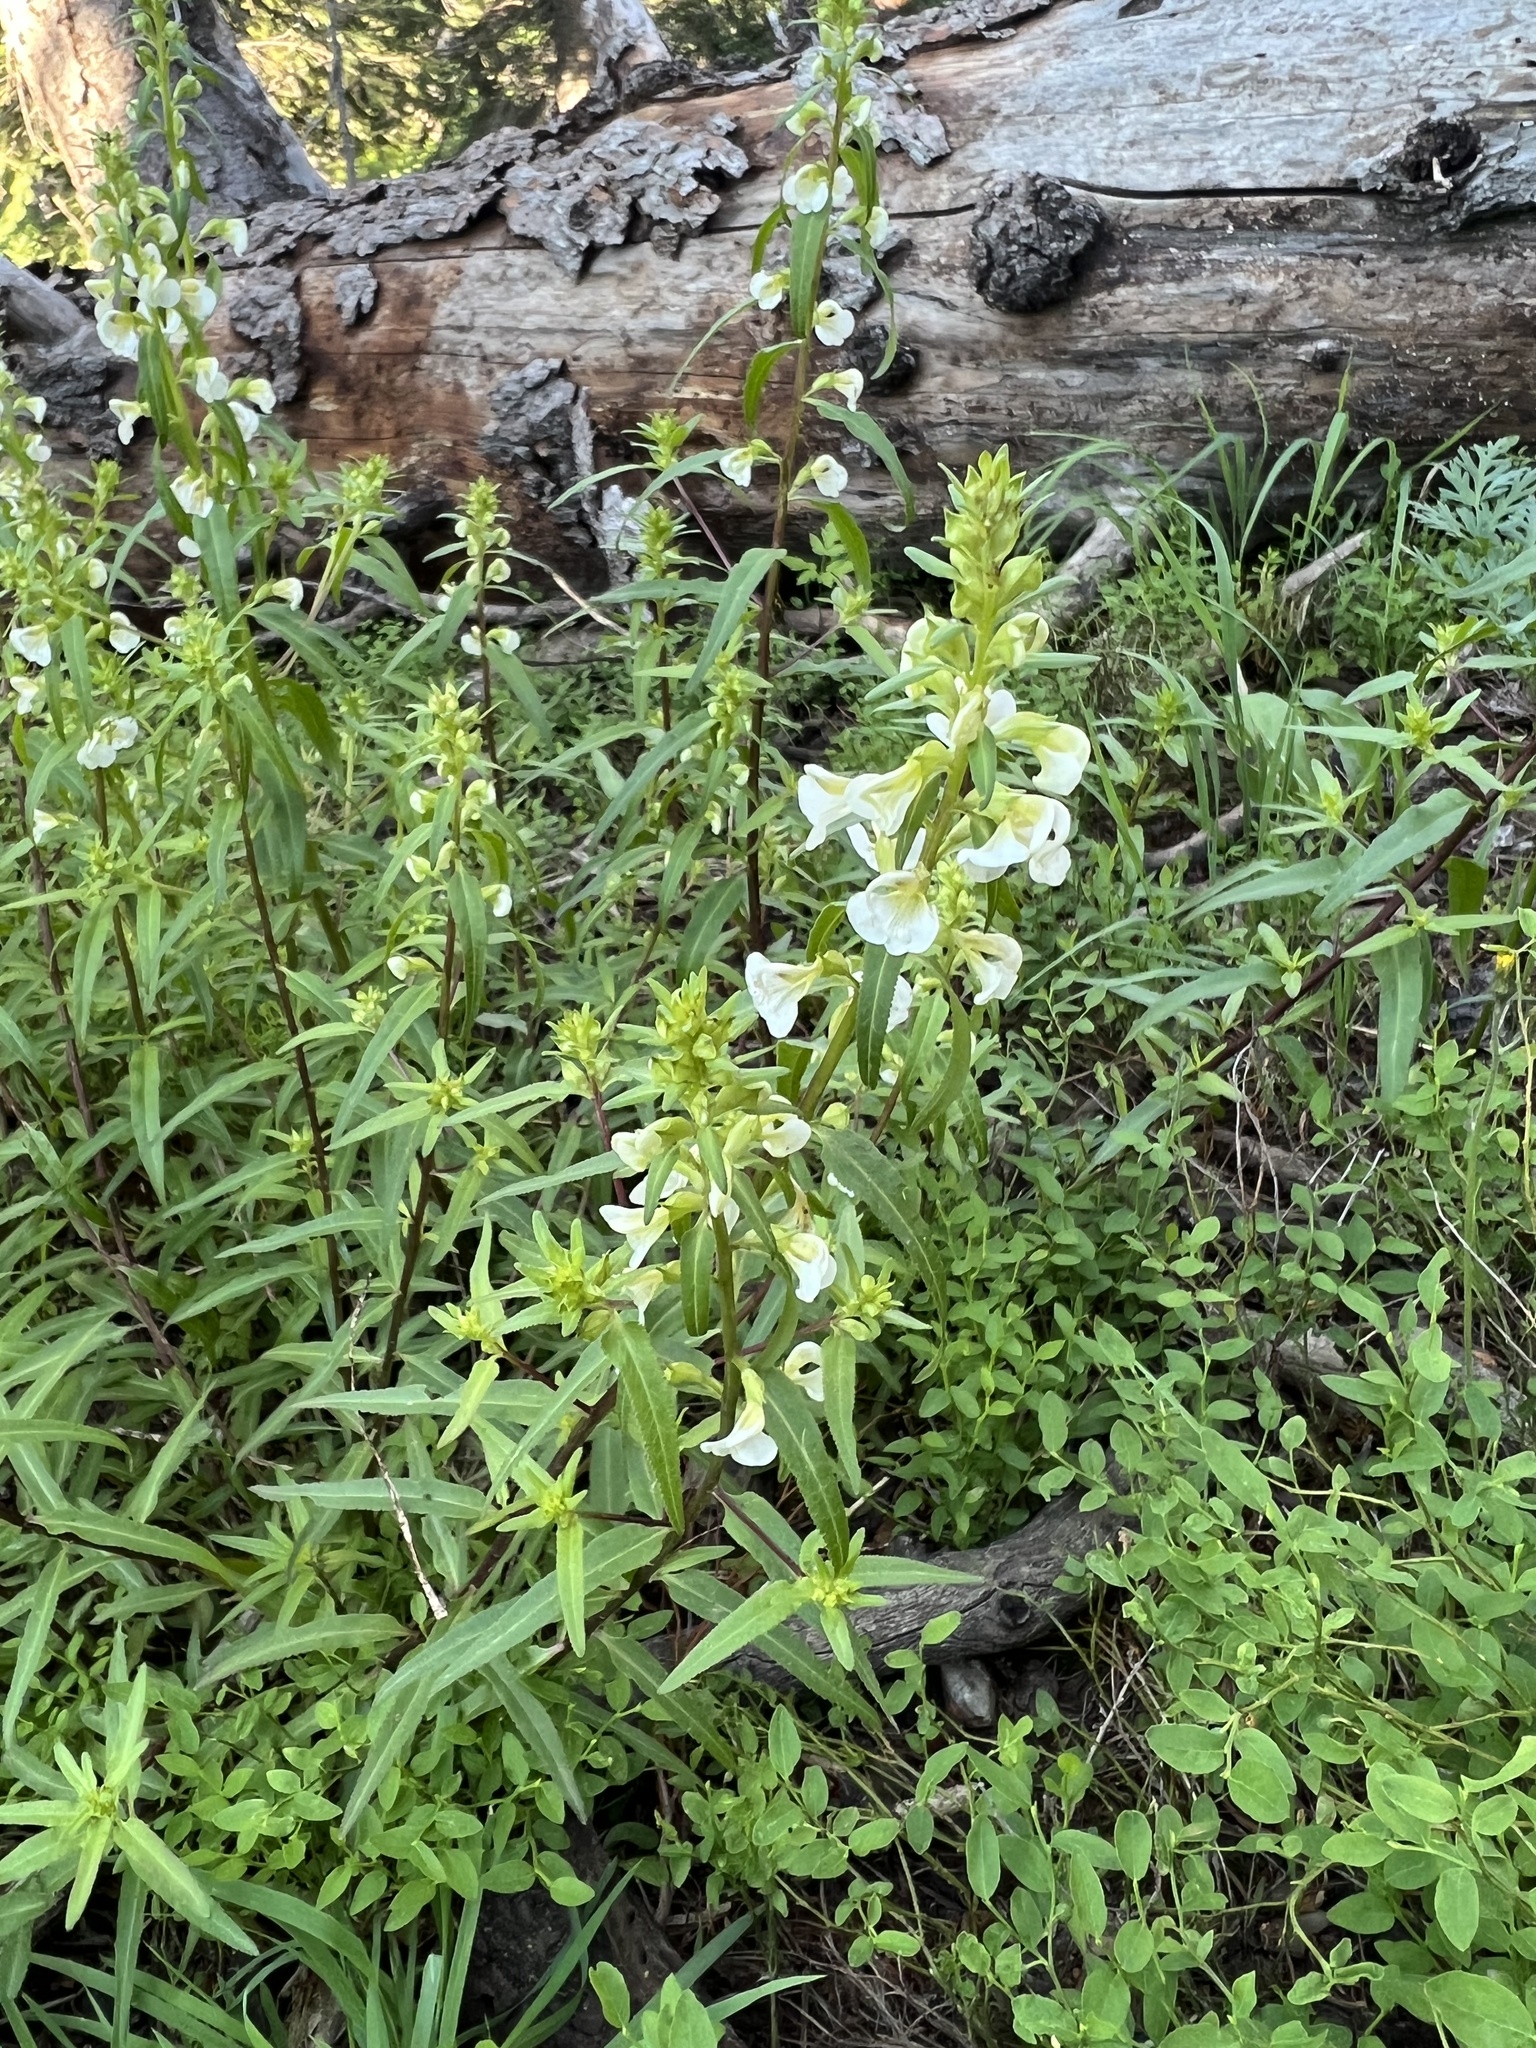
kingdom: Plantae
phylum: Tracheophyta
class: Magnoliopsida
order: Lamiales
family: Orobanchaceae
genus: Pedicularis
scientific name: Pedicularis racemosa
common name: Leafy lousewort
